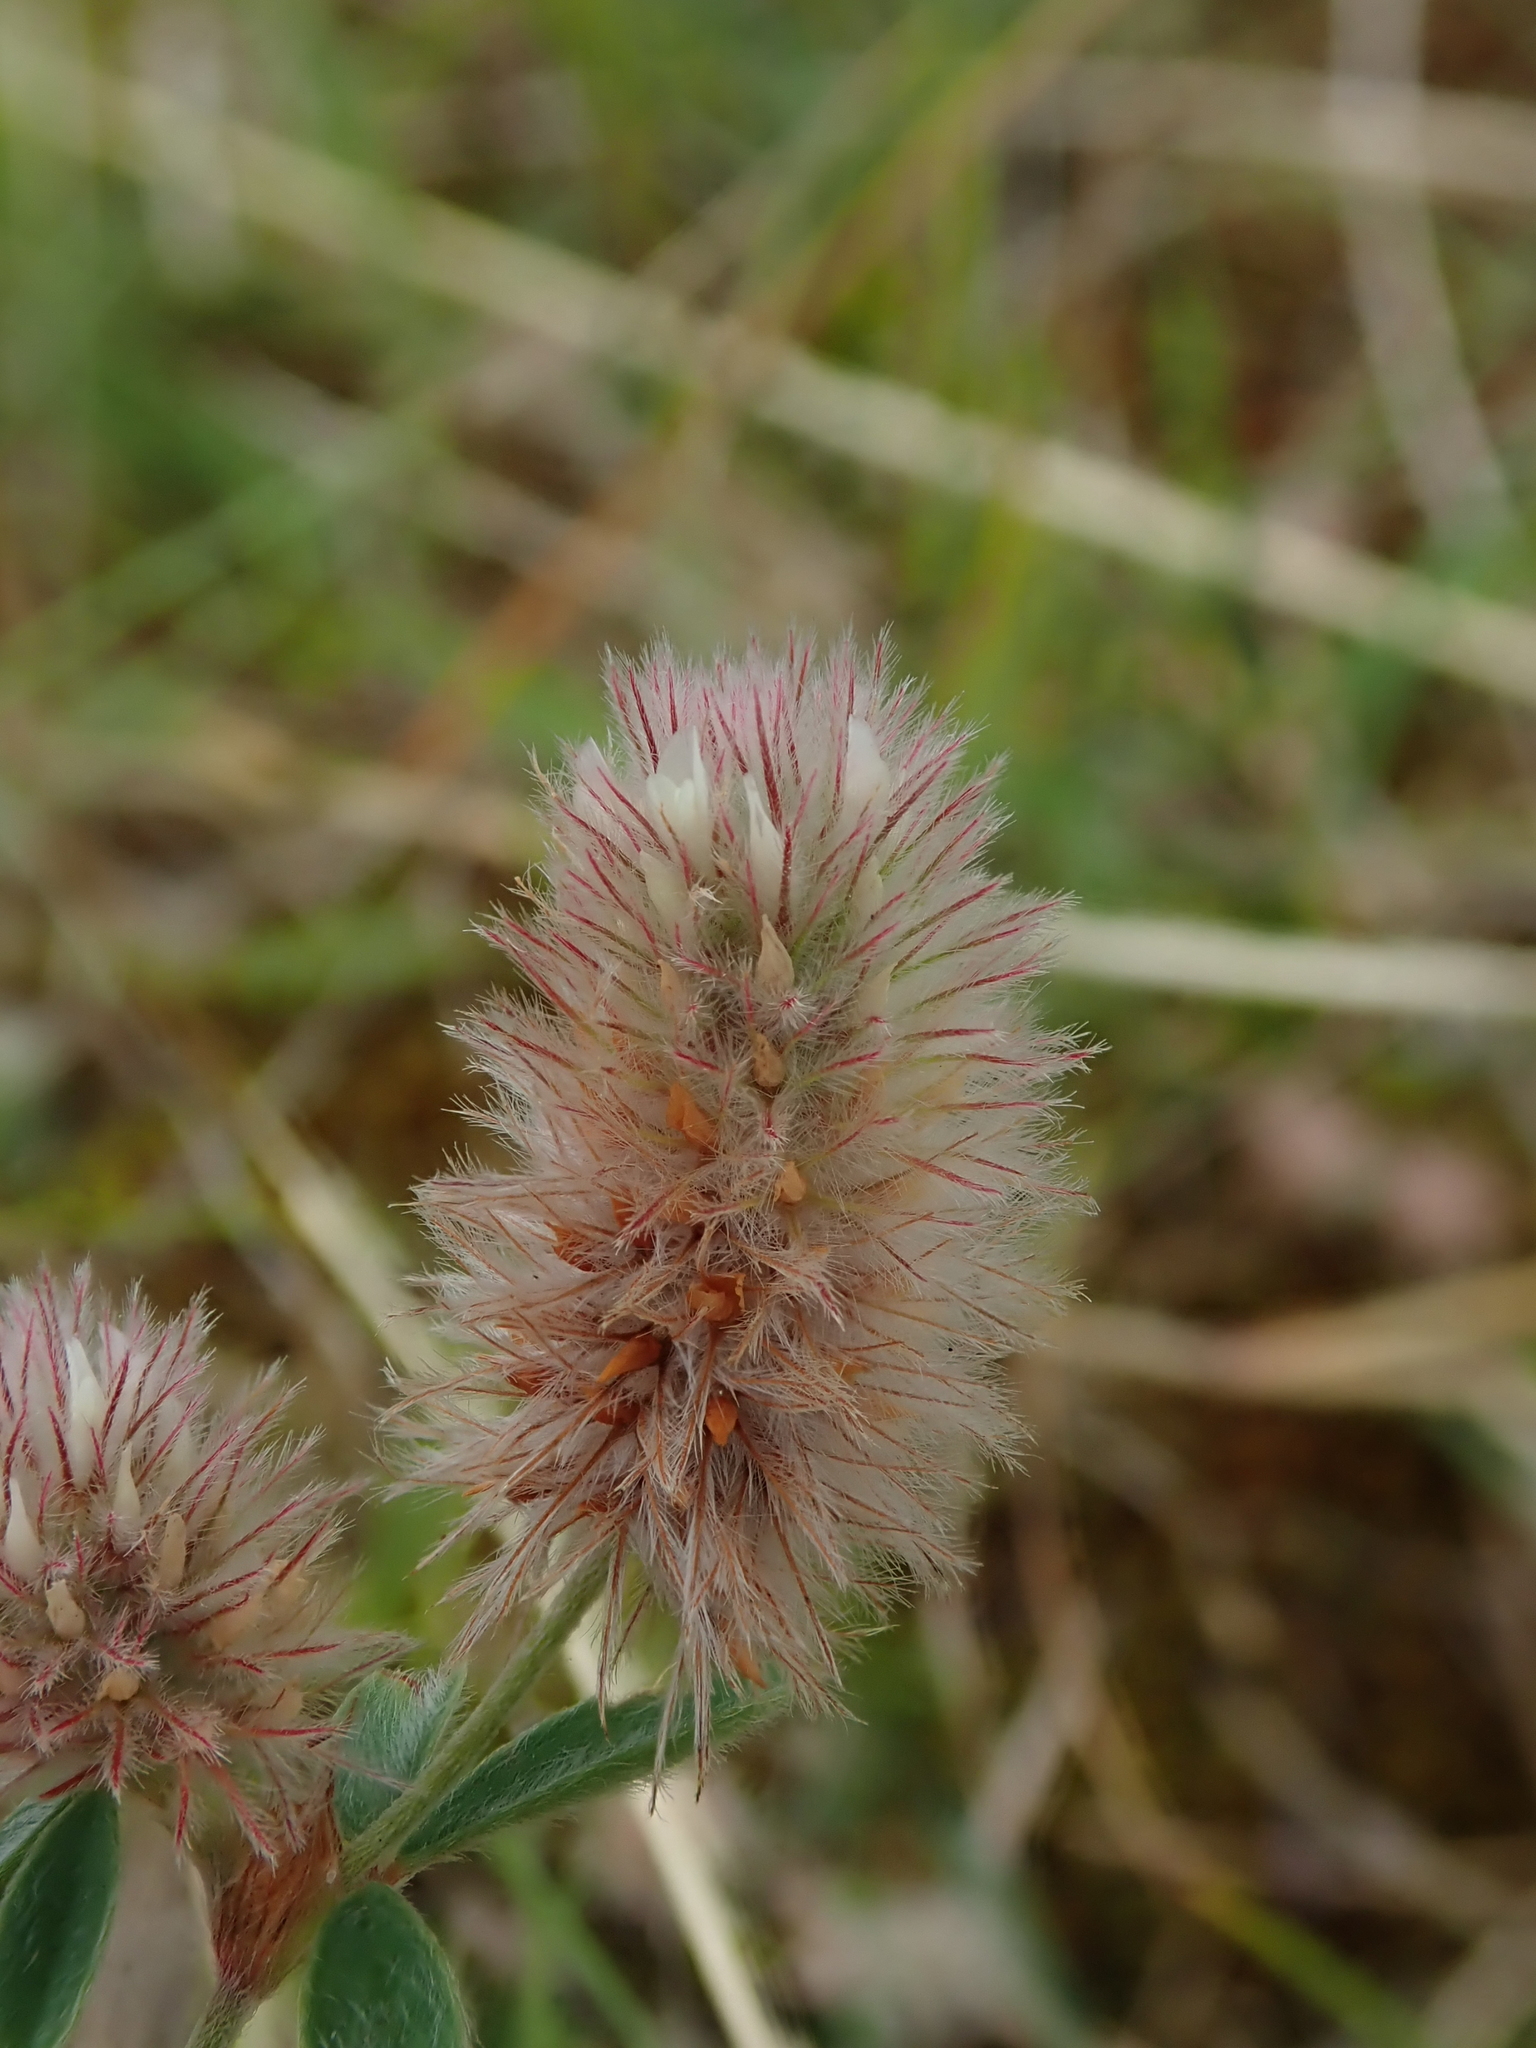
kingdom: Plantae
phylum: Tracheophyta
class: Magnoliopsida
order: Fabales
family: Fabaceae
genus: Trifolium
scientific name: Trifolium arvense
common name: Hare's-foot clover
